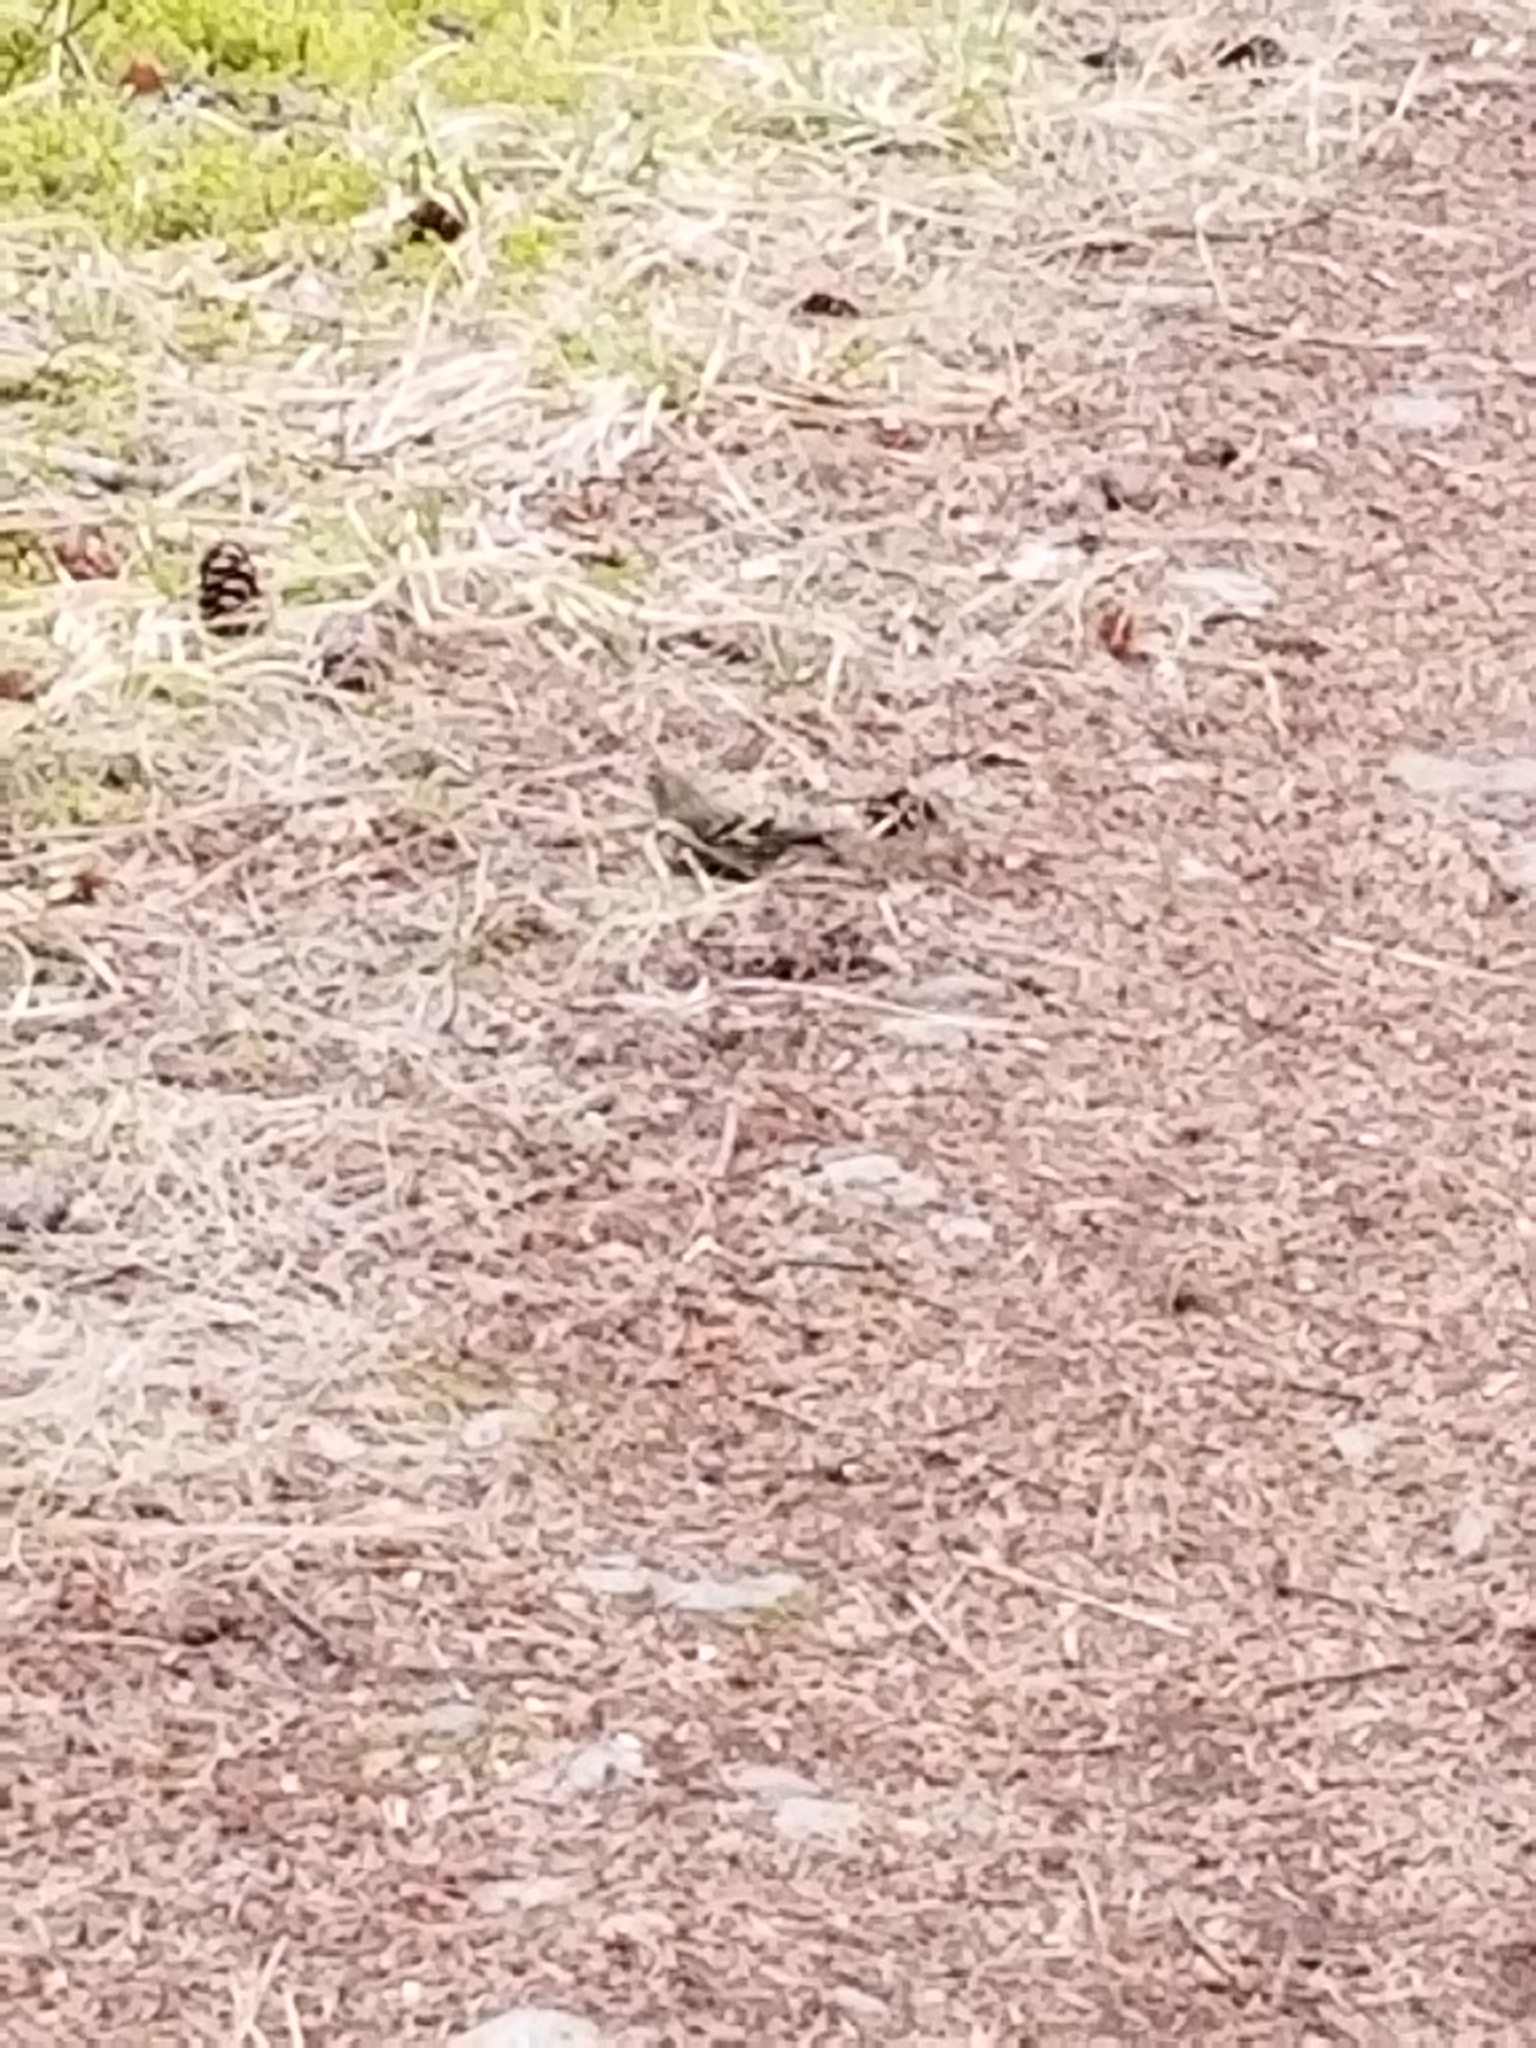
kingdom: Animalia
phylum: Chordata
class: Aves
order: Passeriformes
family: Fringillidae
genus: Spinus
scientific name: Spinus pinus
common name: Pine siskin
